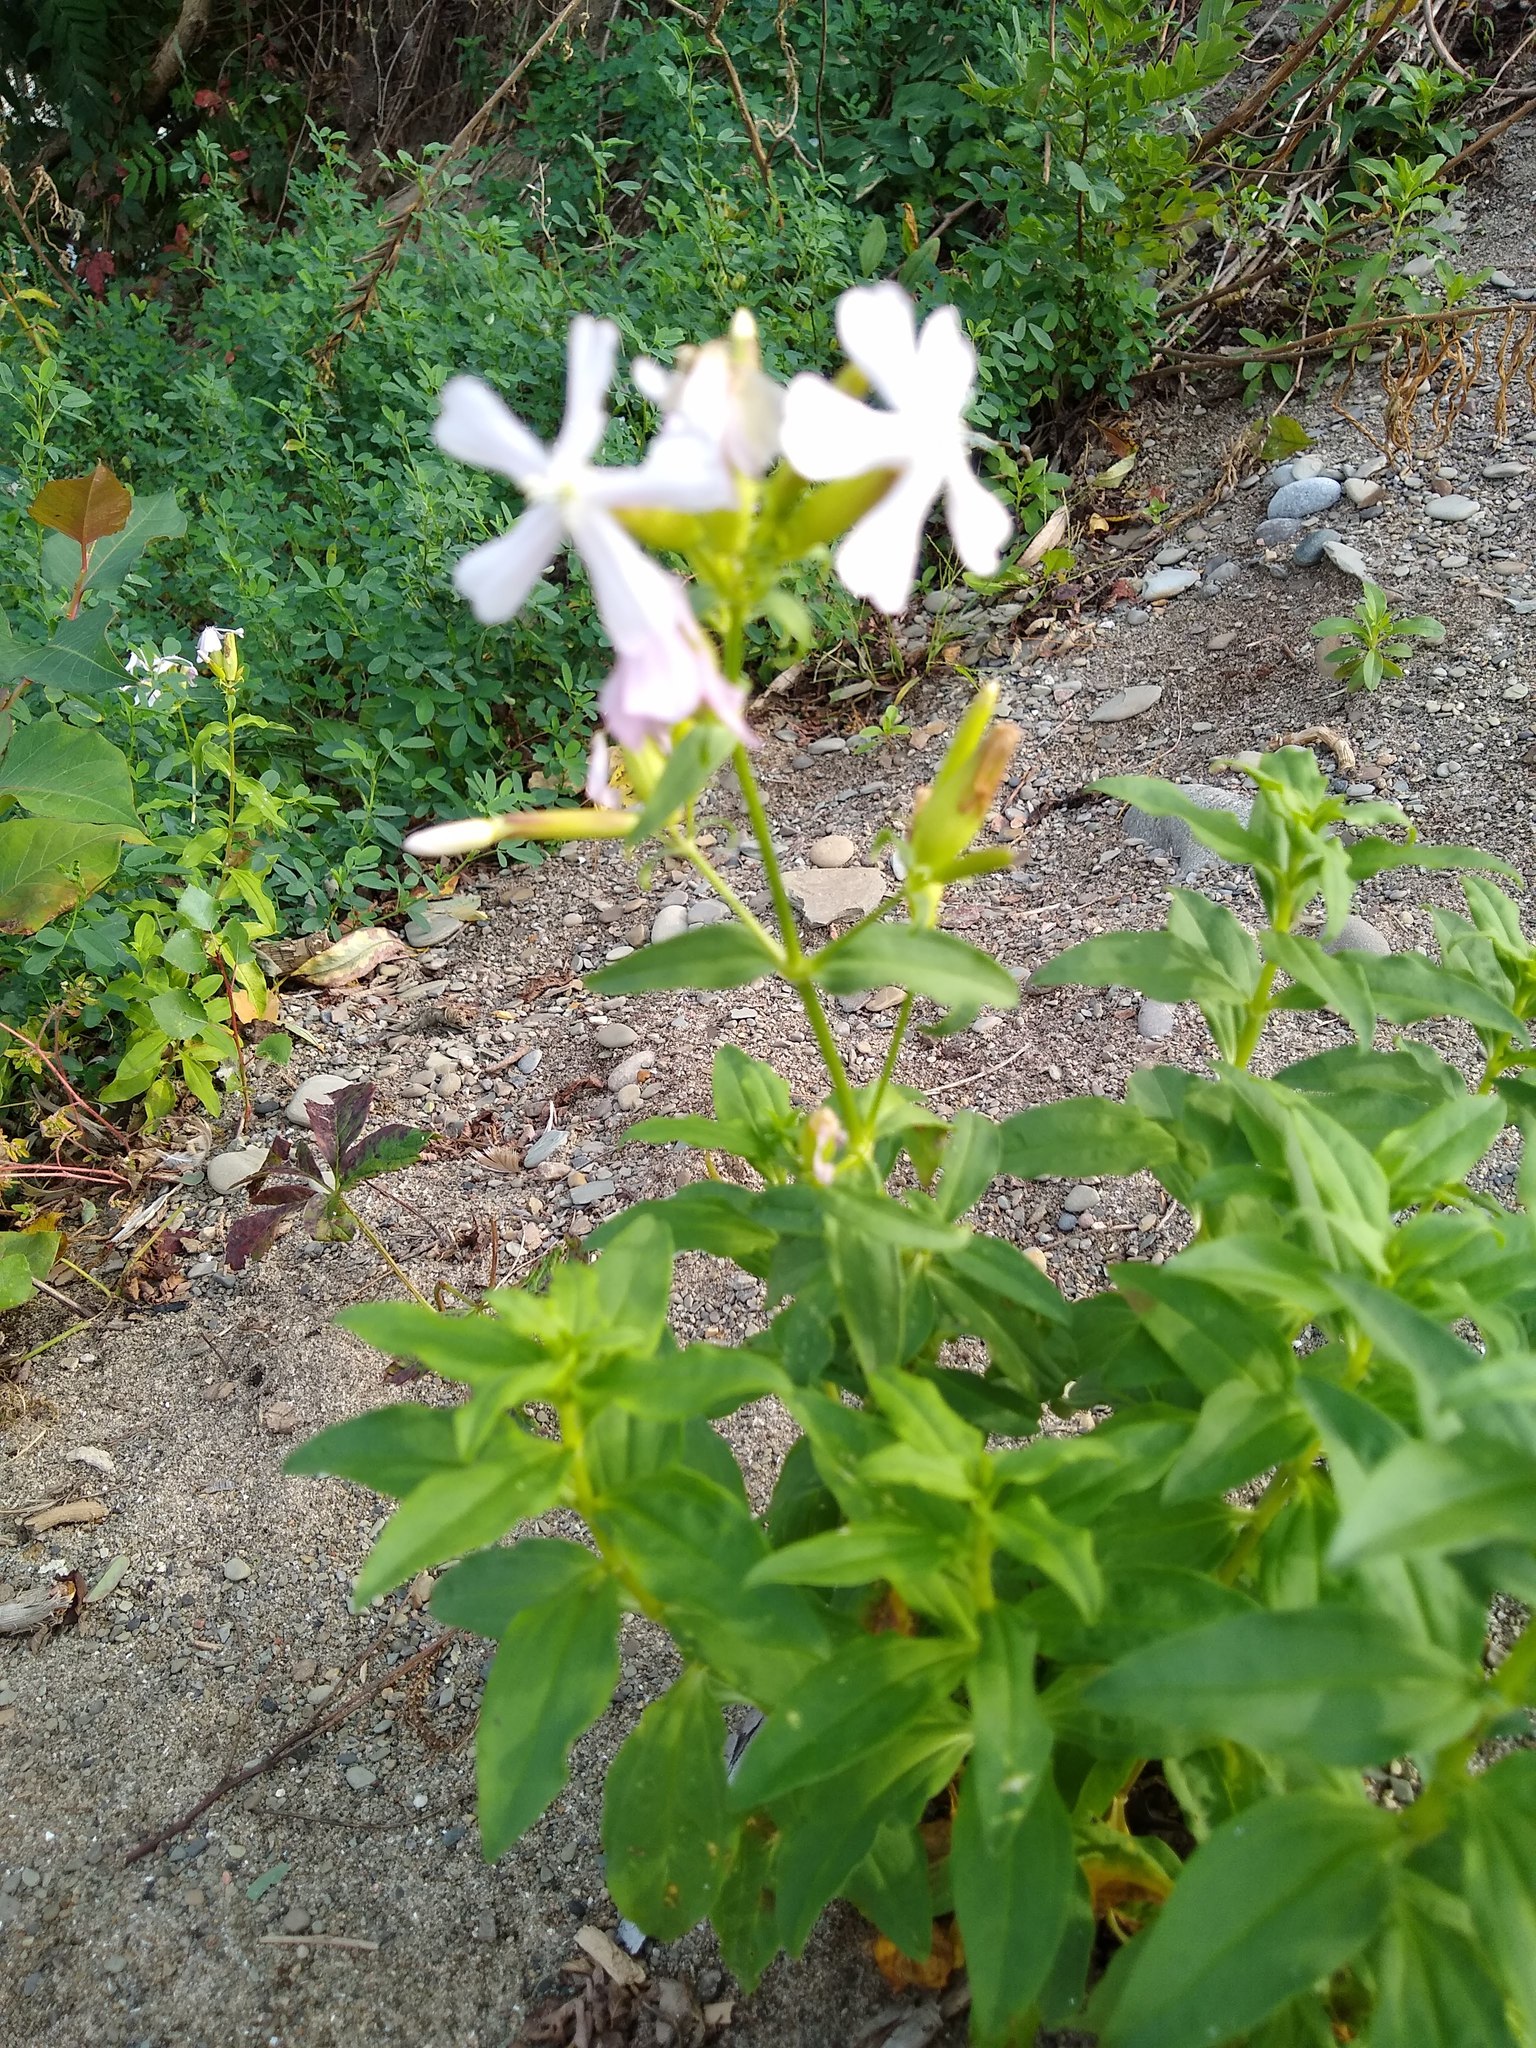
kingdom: Plantae
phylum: Tracheophyta
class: Magnoliopsida
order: Caryophyllales
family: Caryophyllaceae
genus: Saponaria
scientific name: Saponaria officinalis
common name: Soapwort
